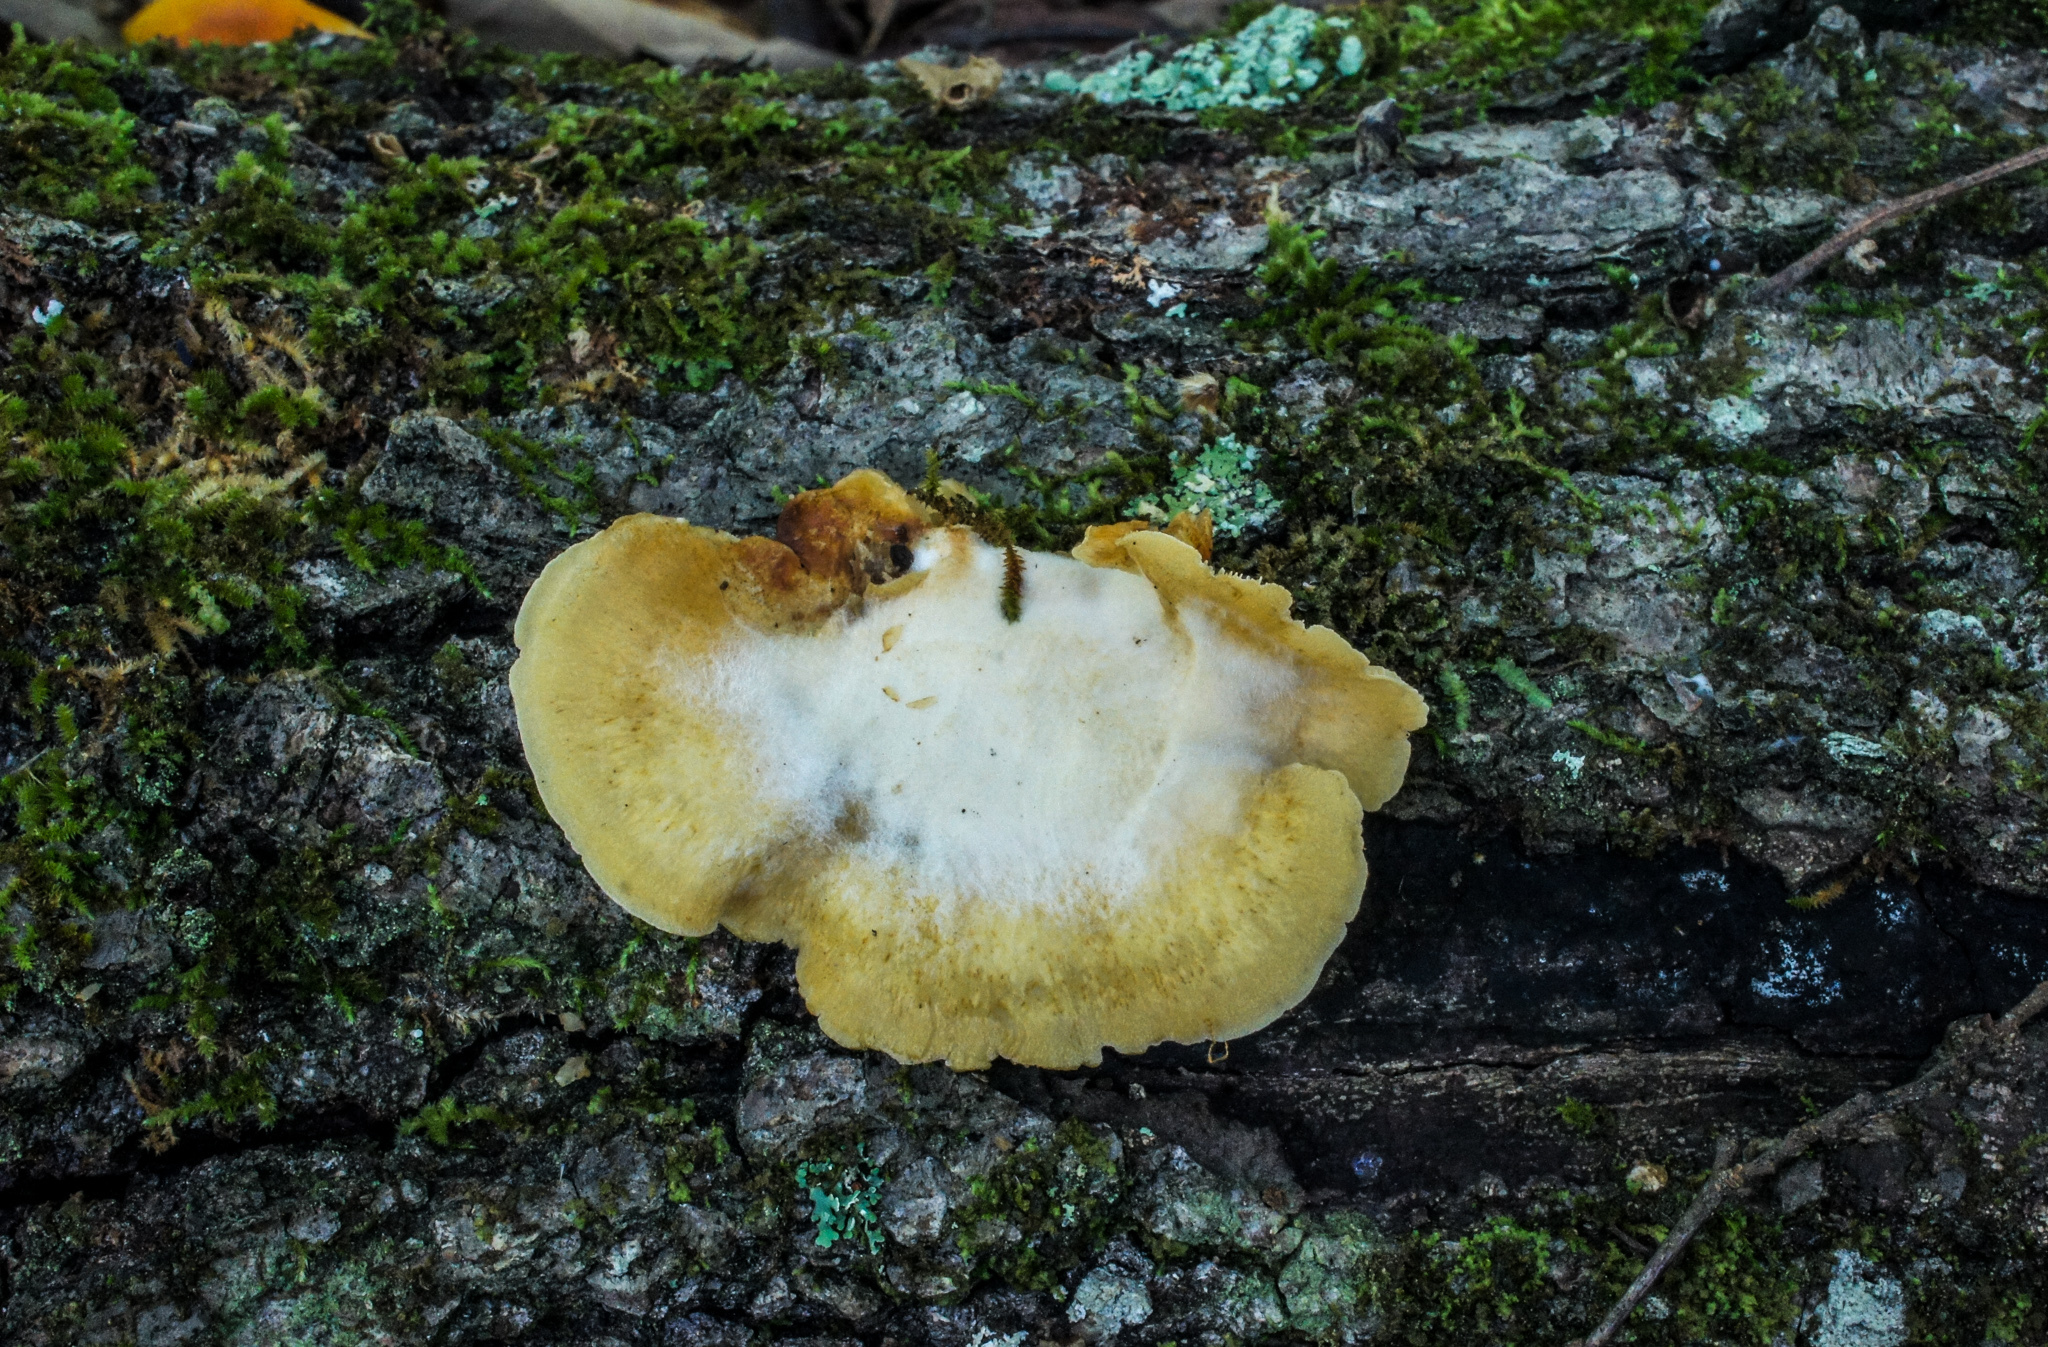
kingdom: Fungi
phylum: Basidiomycota
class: Agaricomycetes
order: Agaricales
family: Phyllotopsidaceae
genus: Phyllotopsis
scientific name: Phyllotopsis nidulans
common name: Orange mock oyster
